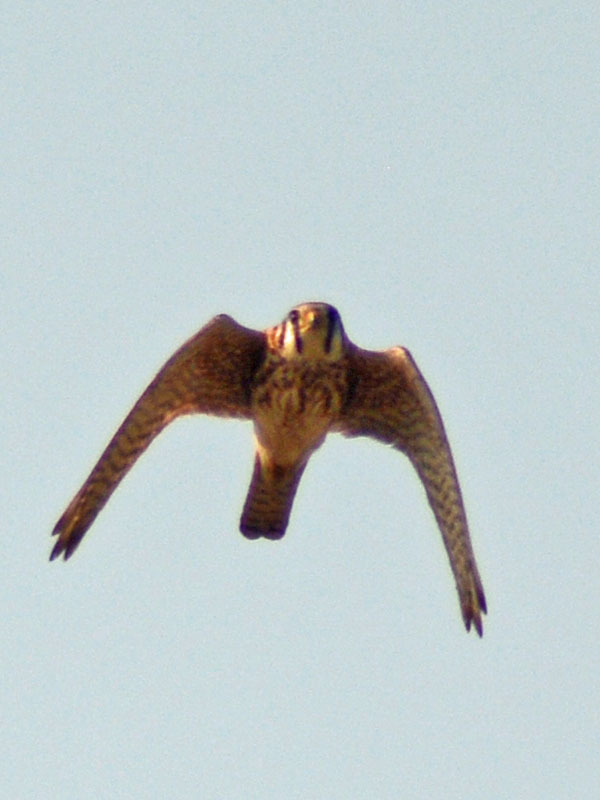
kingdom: Animalia
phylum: Chordata
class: Aves
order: Falconiformes
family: Falconidae
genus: Falco
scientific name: Falco sparverius
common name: American kestrel
